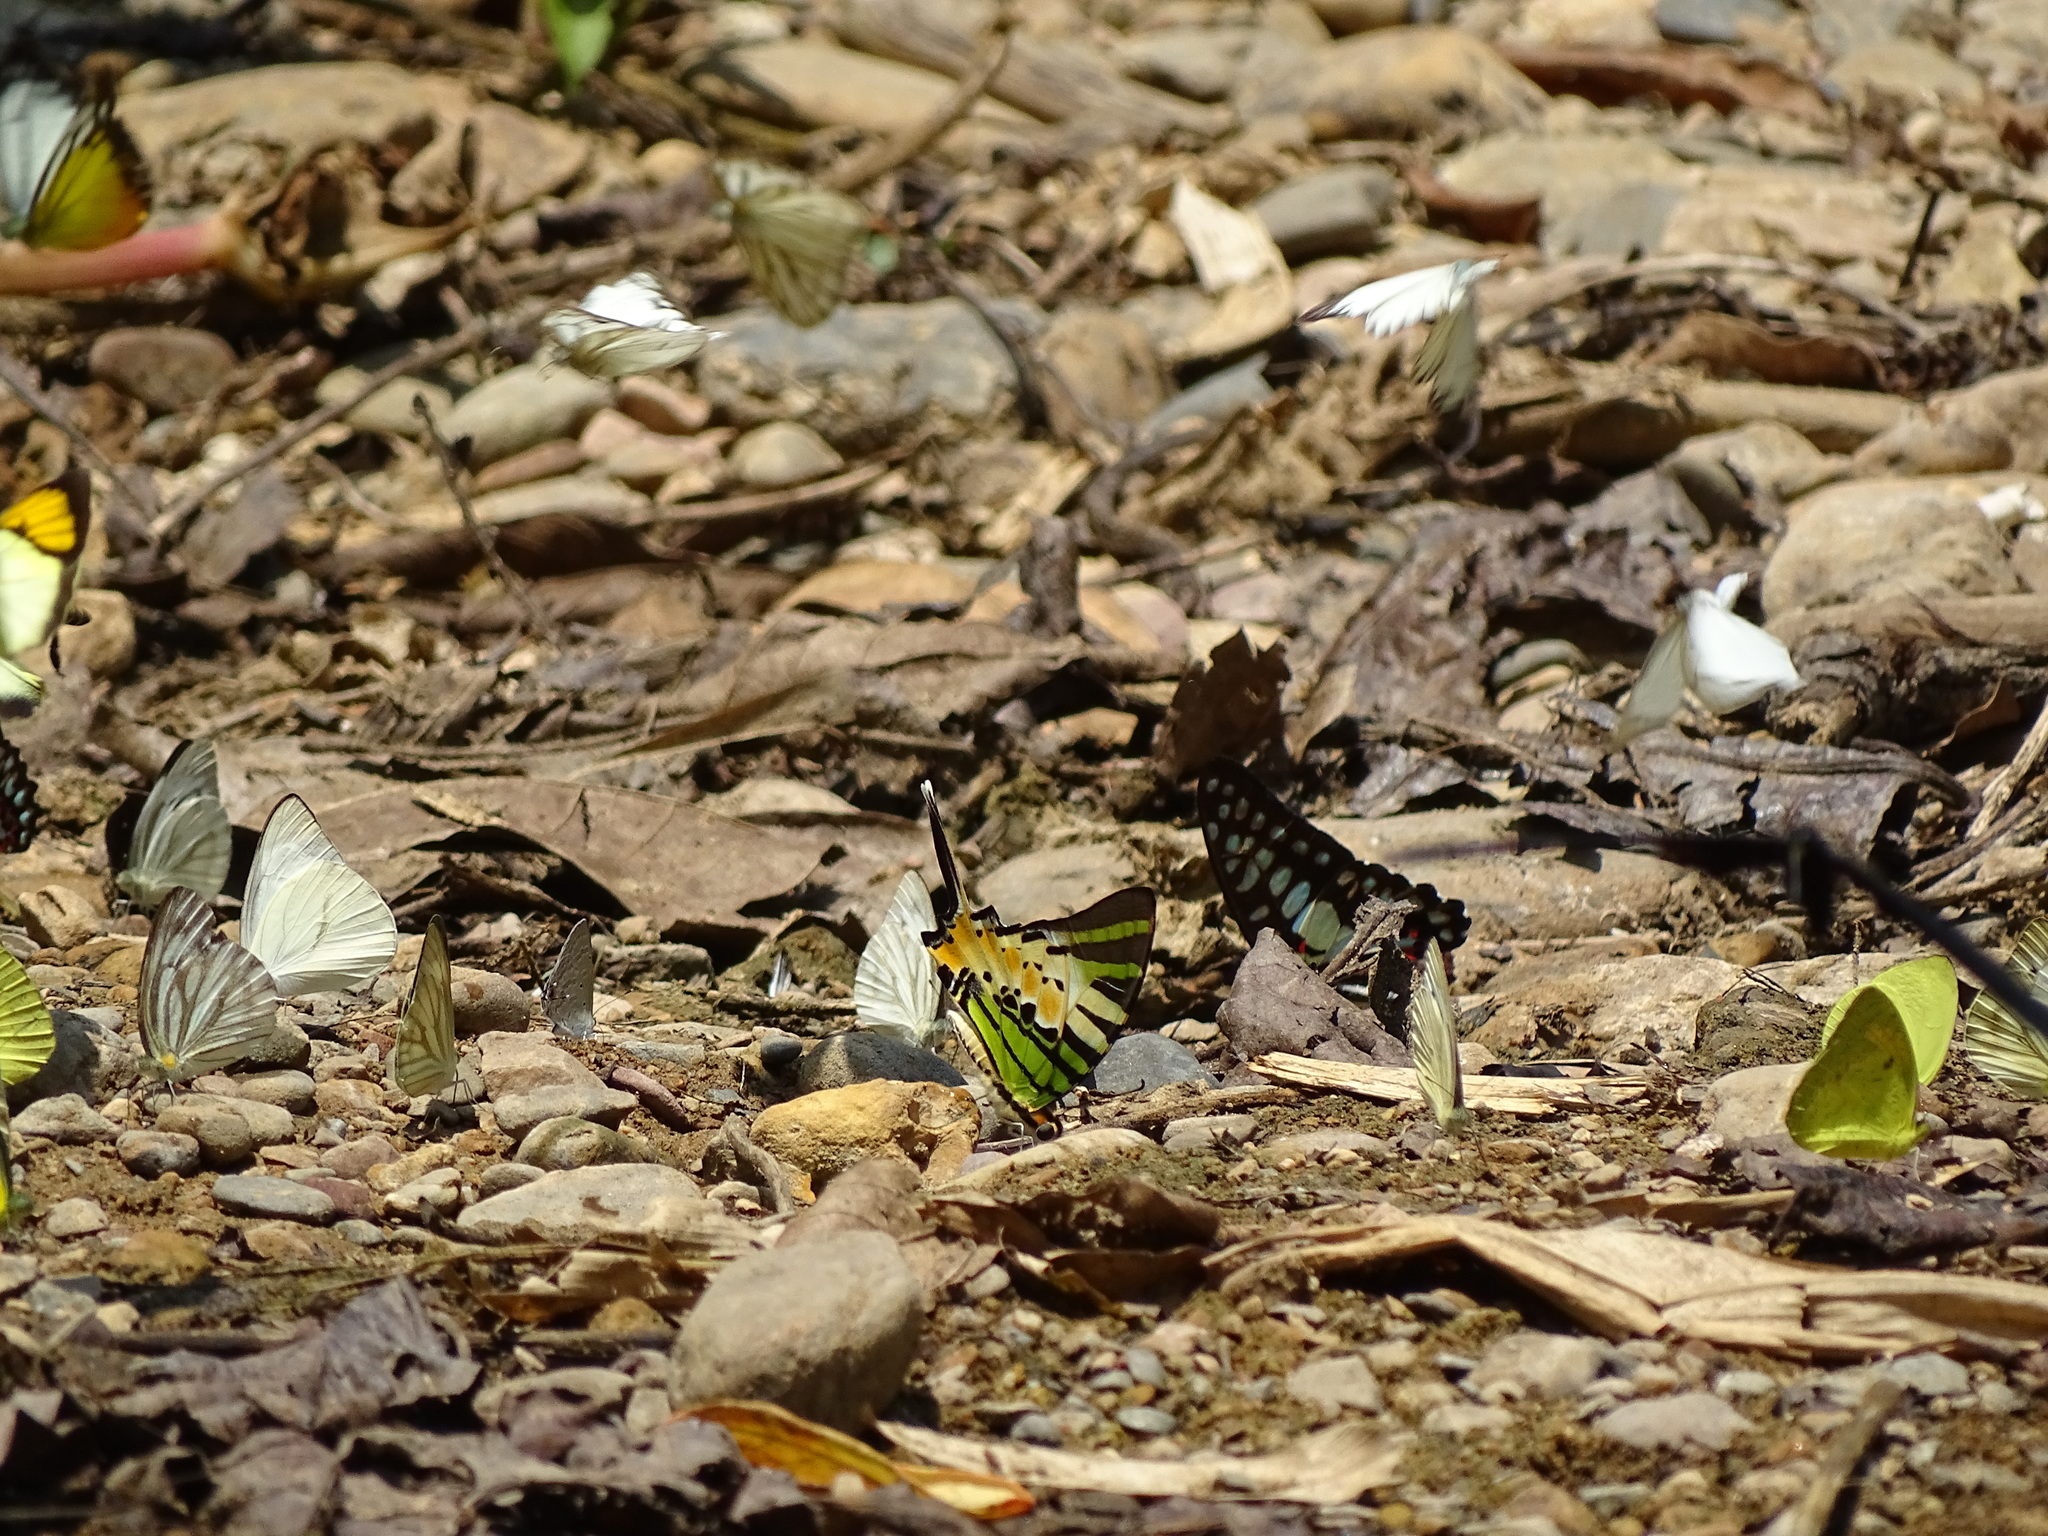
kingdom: Animalia
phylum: Arthropoda
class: Insecta
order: Lepidoptera
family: Papilionidae
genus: Graphium
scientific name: Graphium antiphates
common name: Fivebar swordtail
